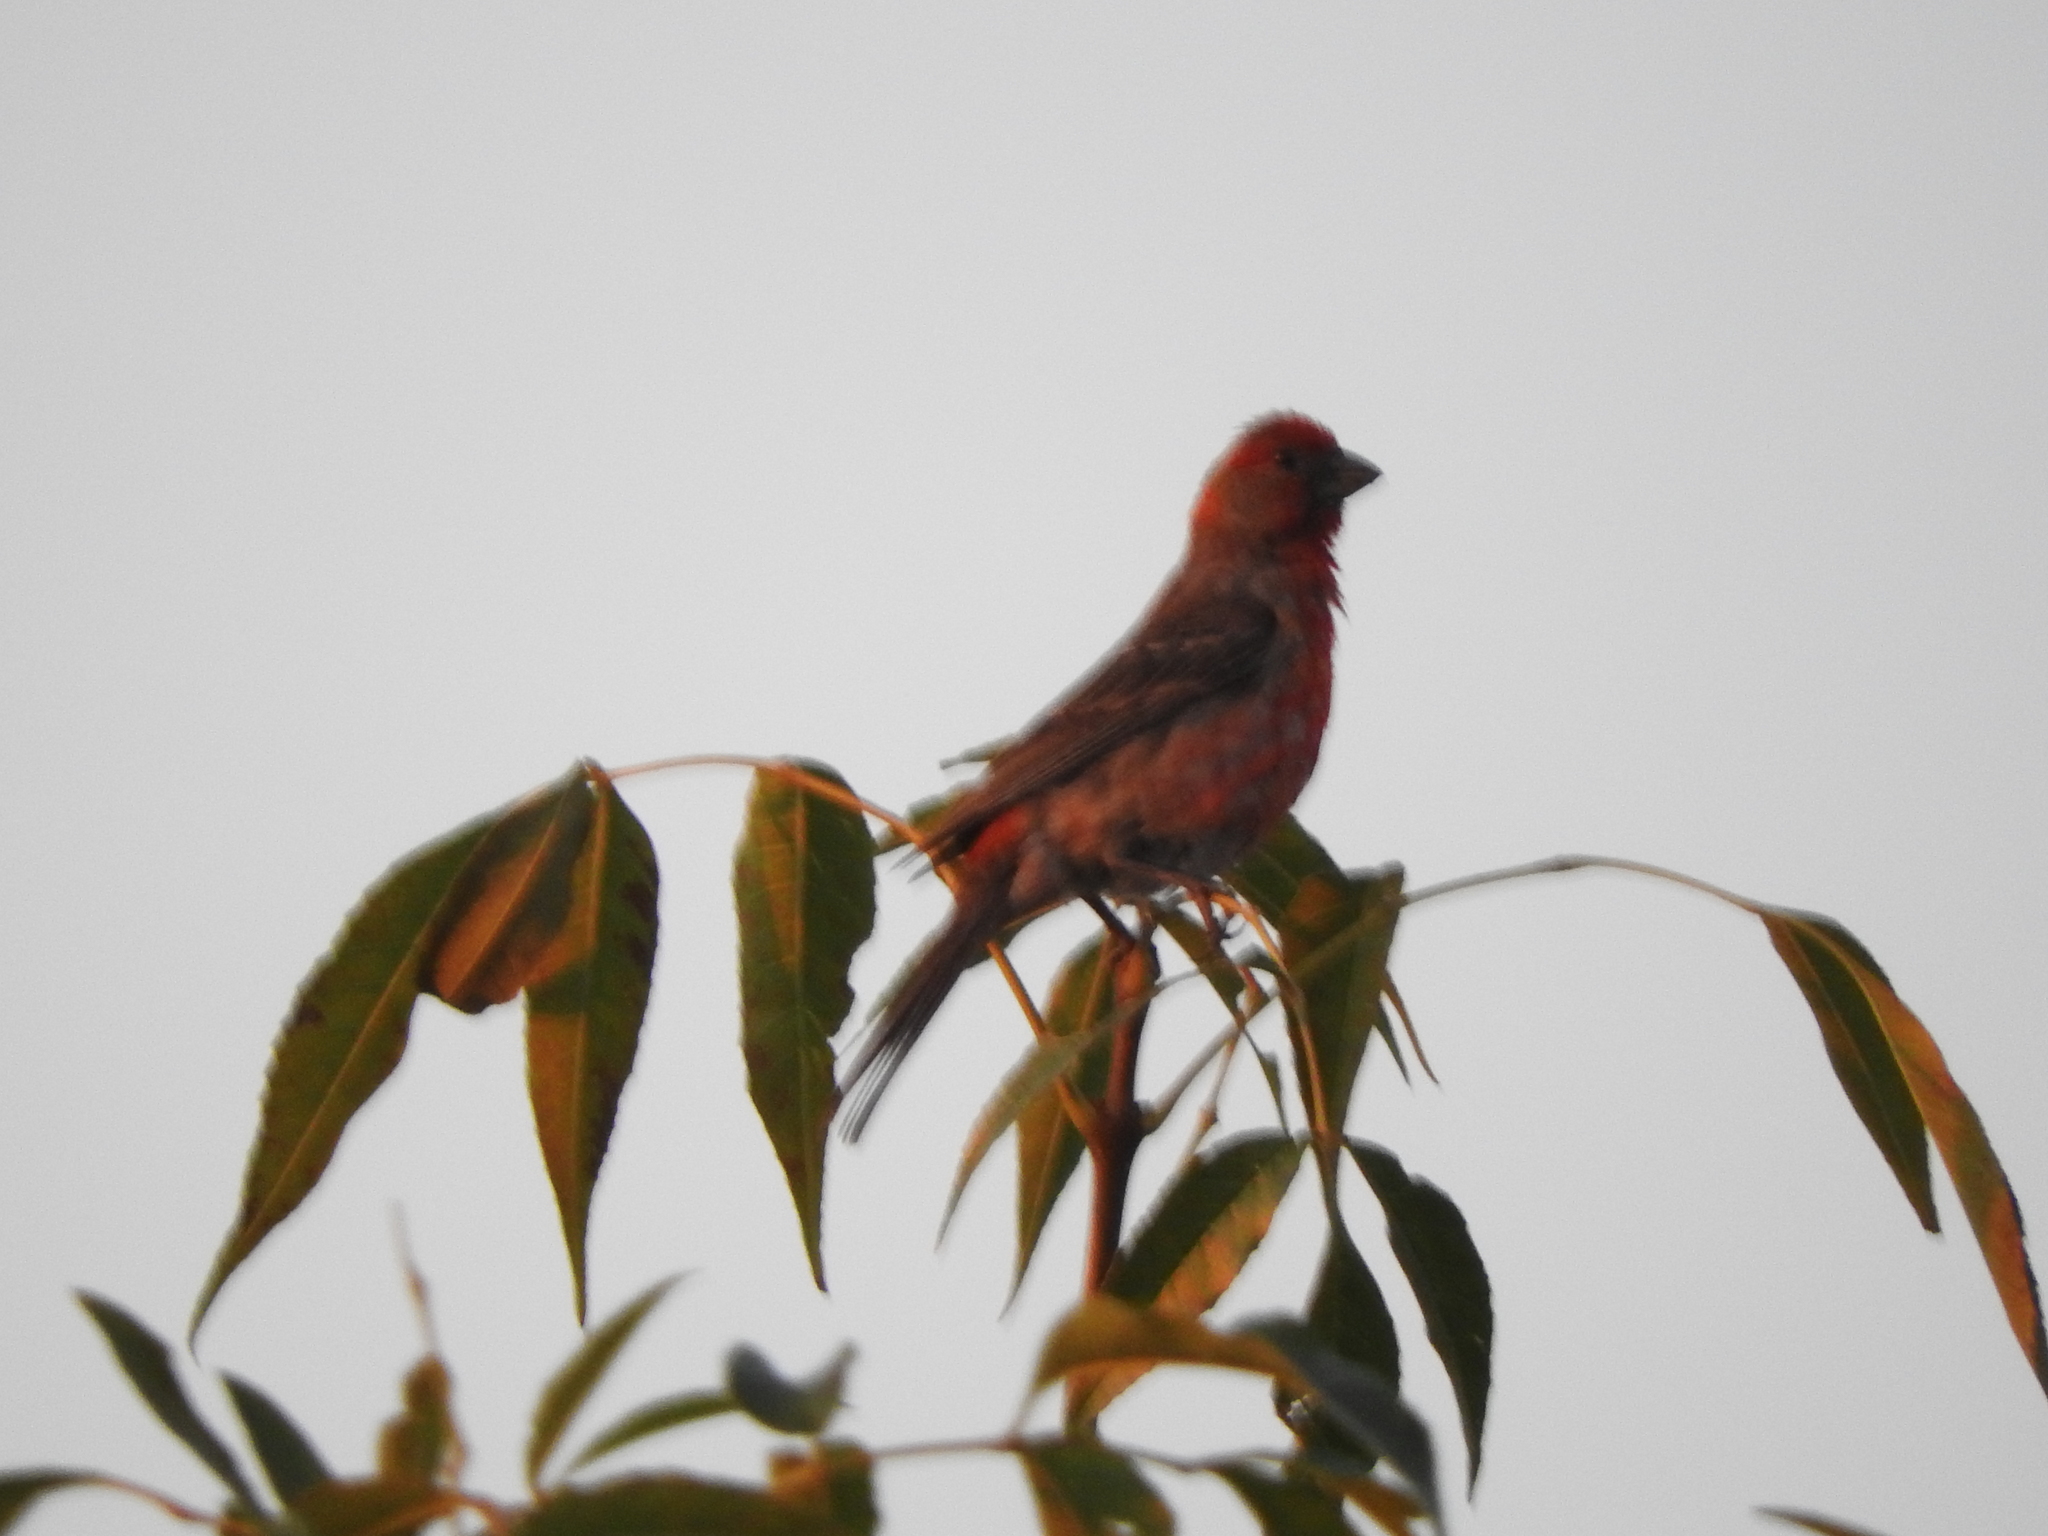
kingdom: Animalia
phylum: Chordata
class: Aves
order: Passeriformes
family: Fringillidae
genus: Haemorhous
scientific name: Haemorhous mexicanus
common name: House finch
